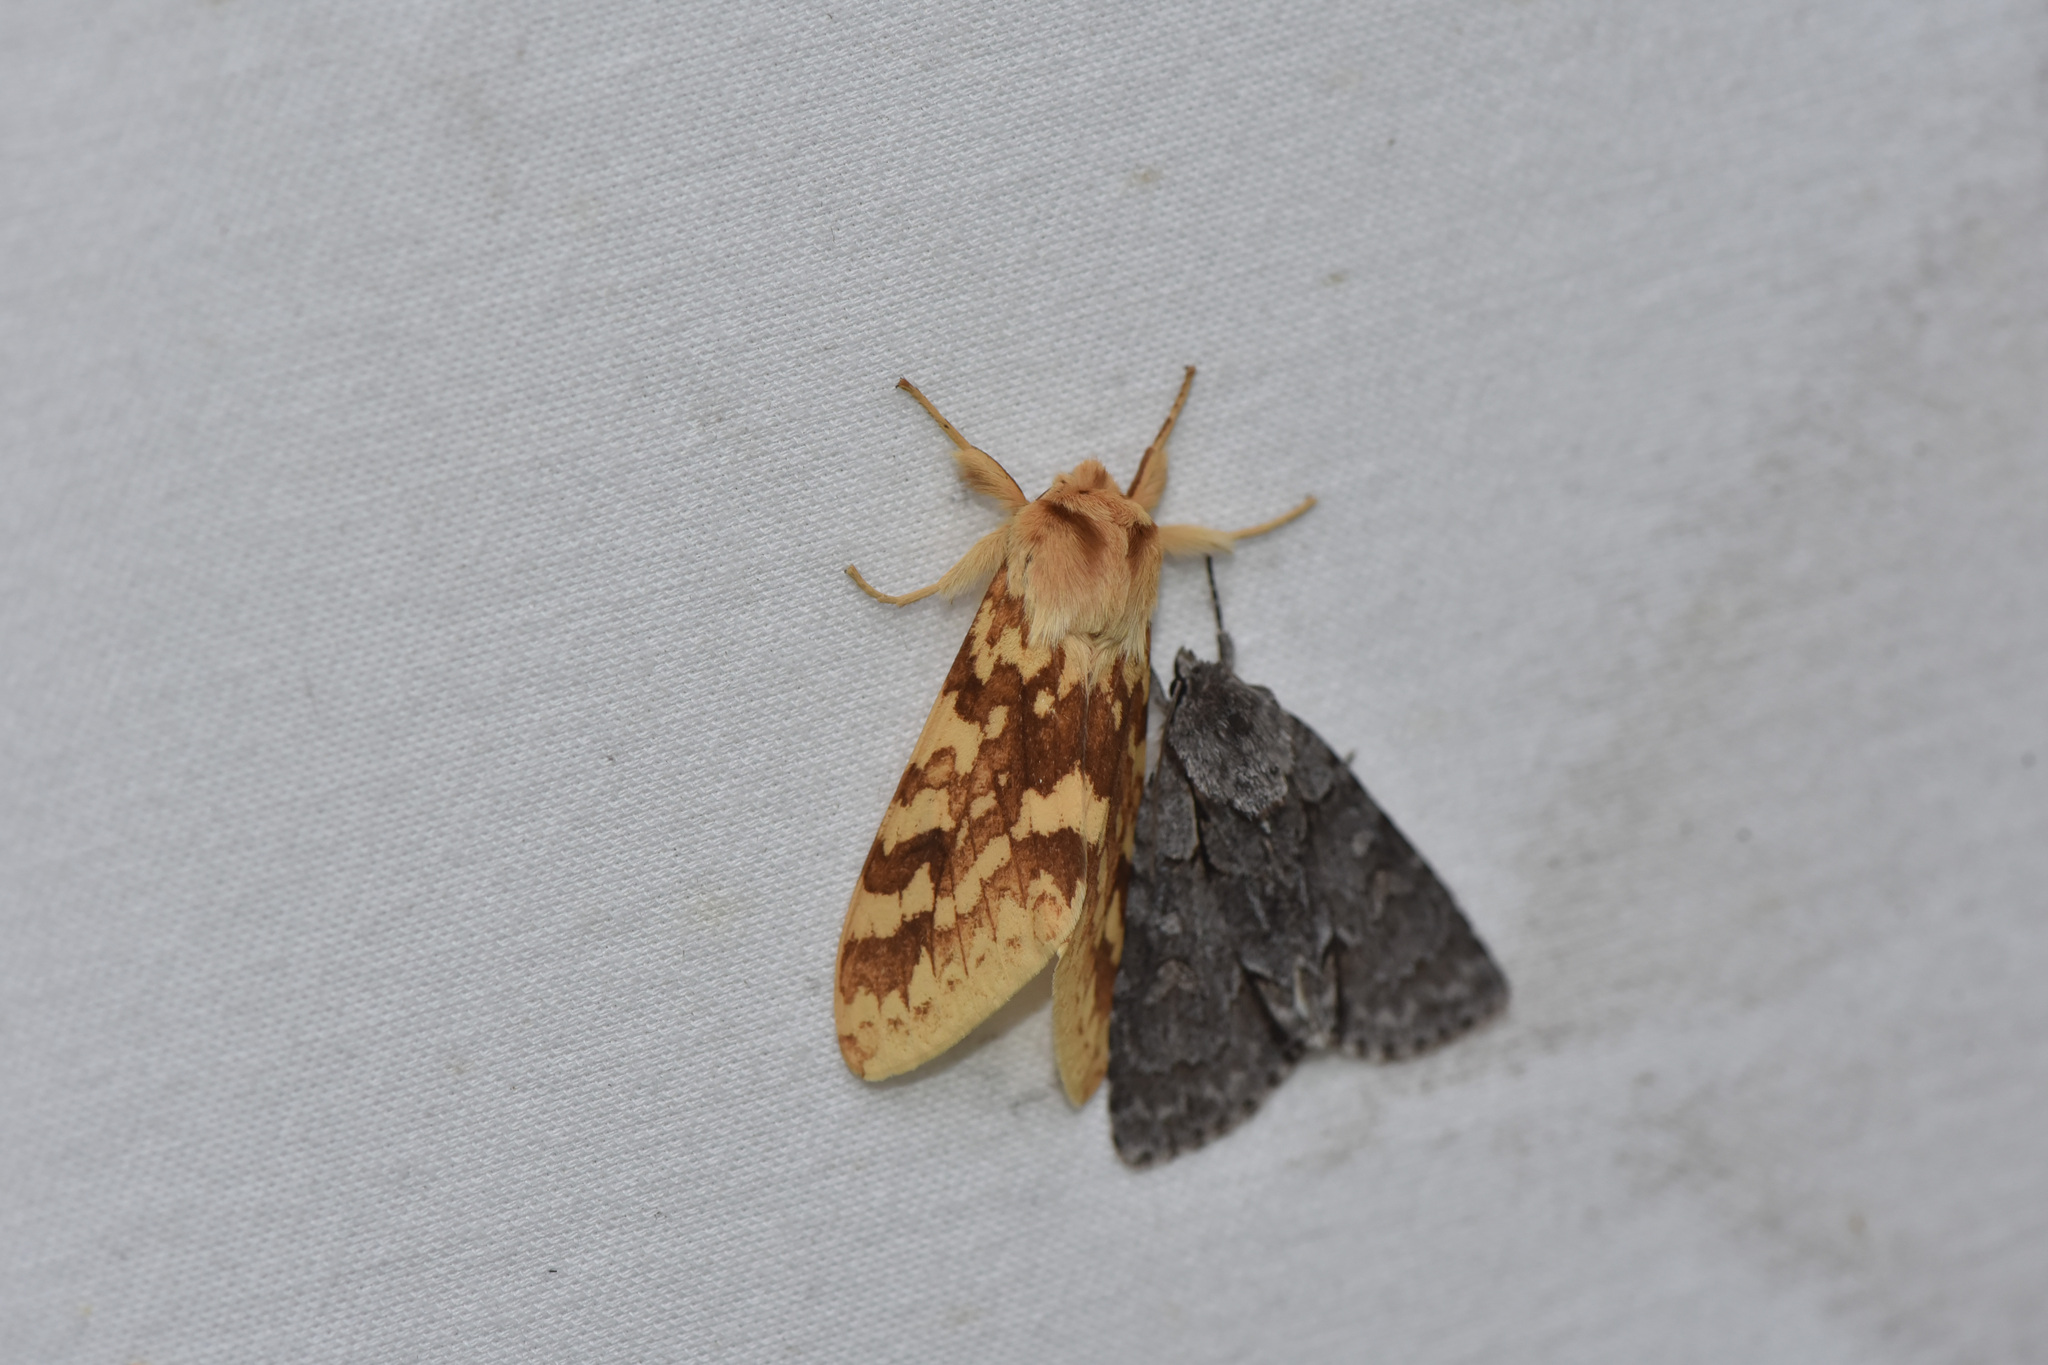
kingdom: Animalia
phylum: Arthropoda
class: Insecta
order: Lepidoptera
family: Erebidae
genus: Lophocampa
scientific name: Lophocampa maculata
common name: Spotted tussock moth
